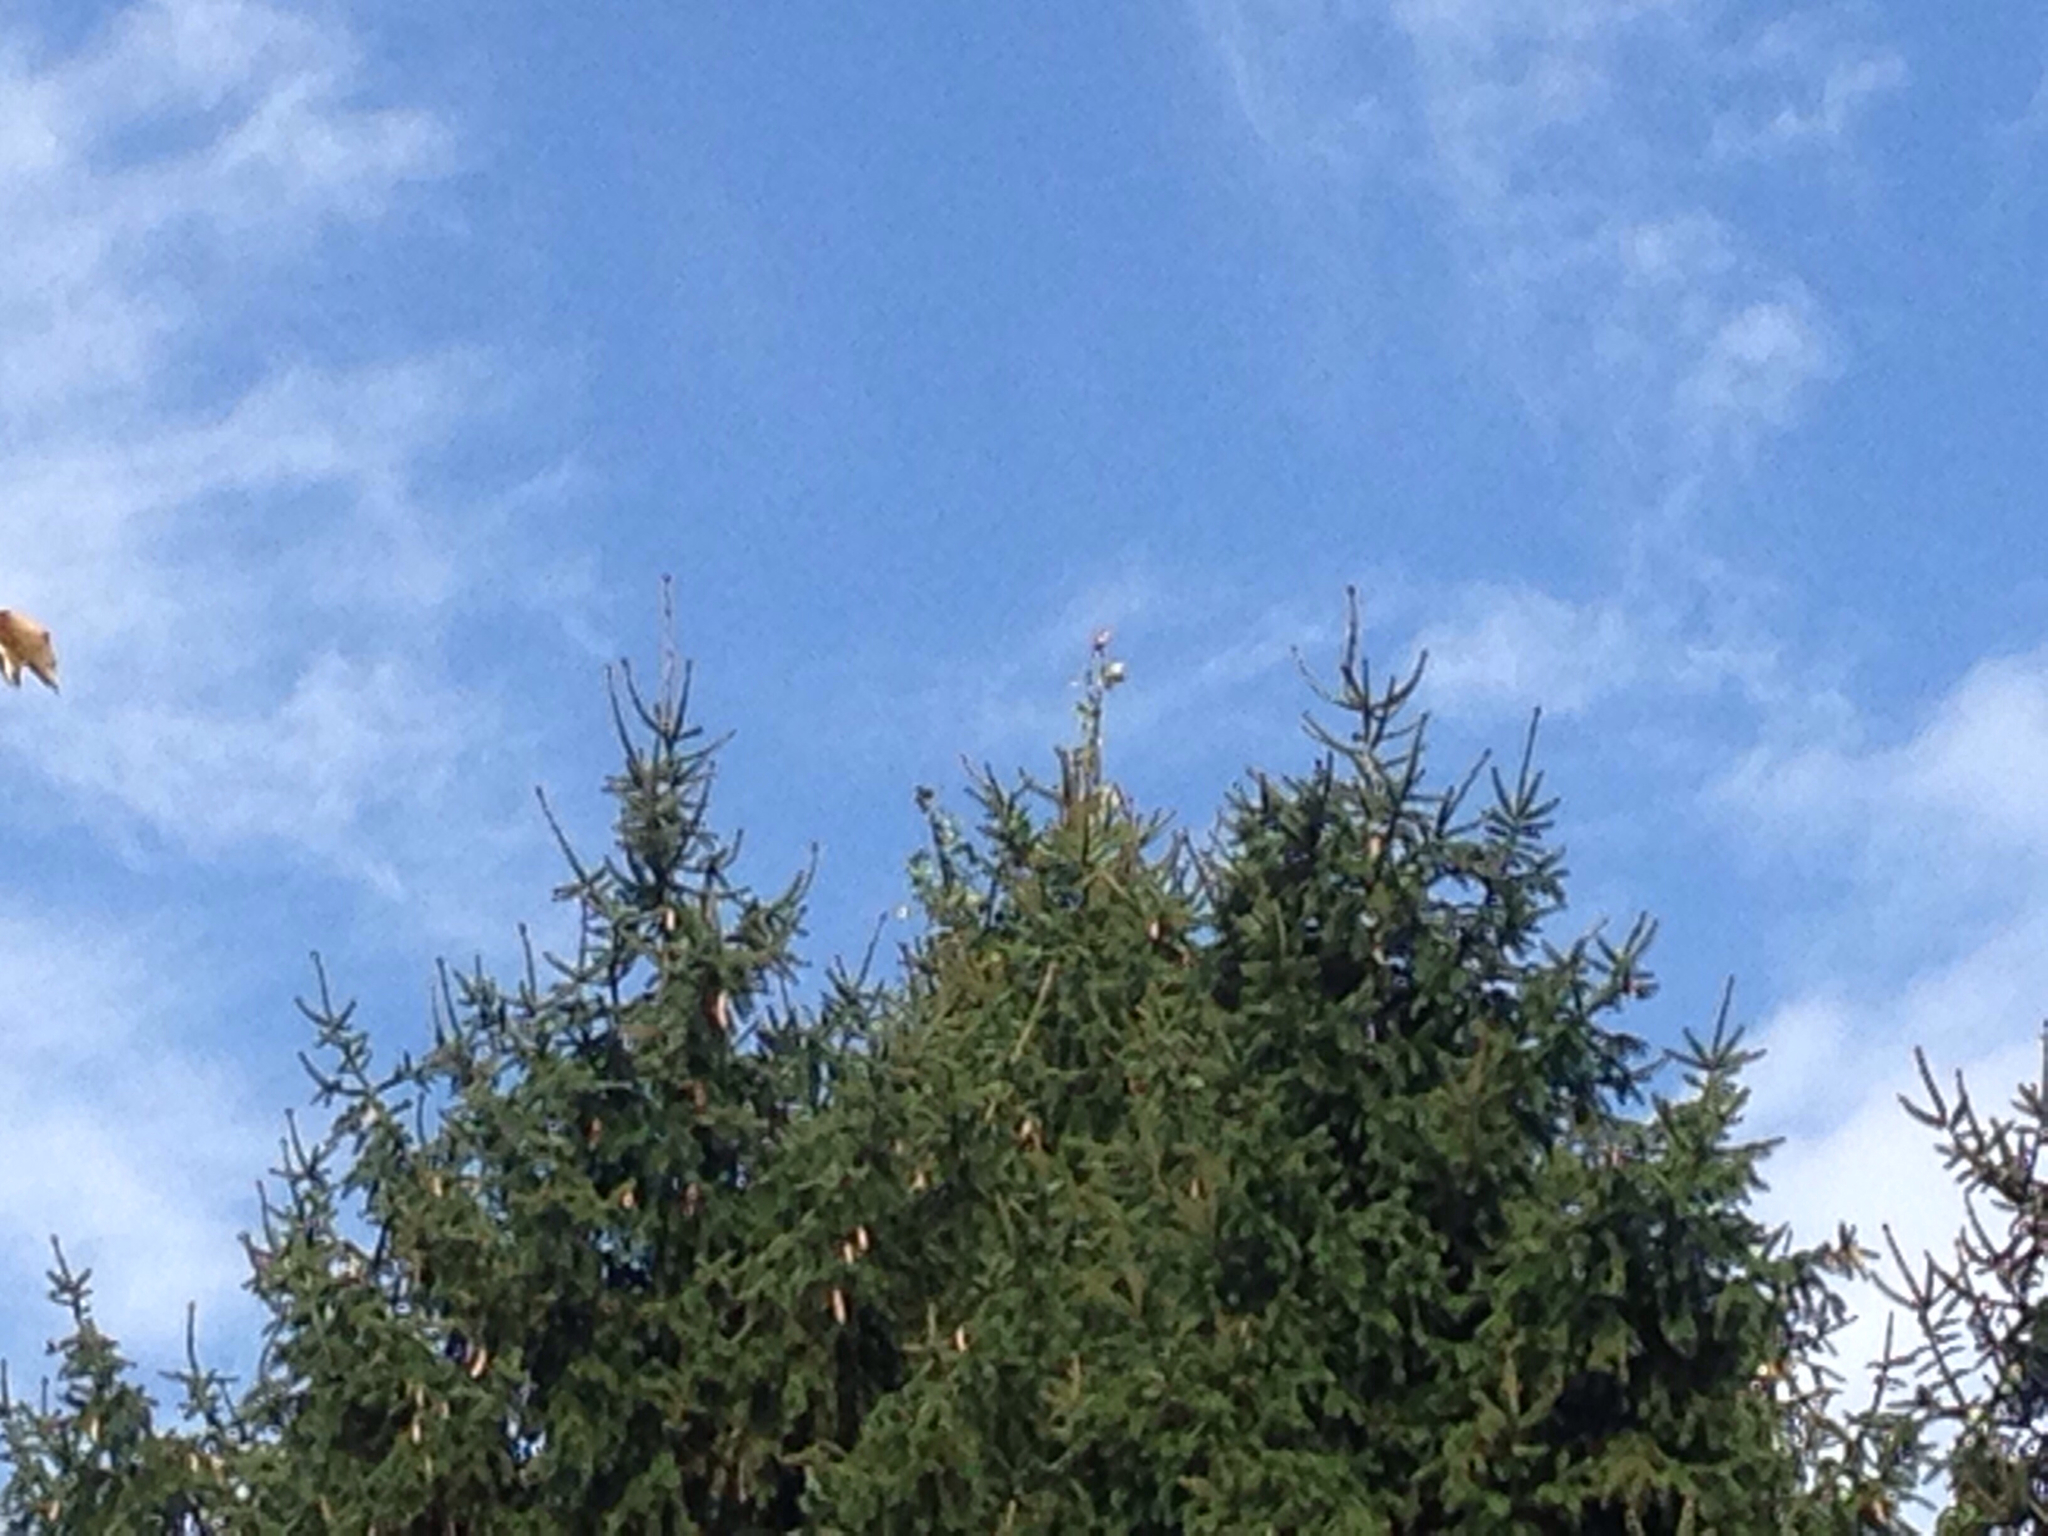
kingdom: Animalia
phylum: Chordata
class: Aves
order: Passeriformes
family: Laniidae
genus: Lanius
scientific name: Lanius bucephalus
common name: Bull-headed shrike
